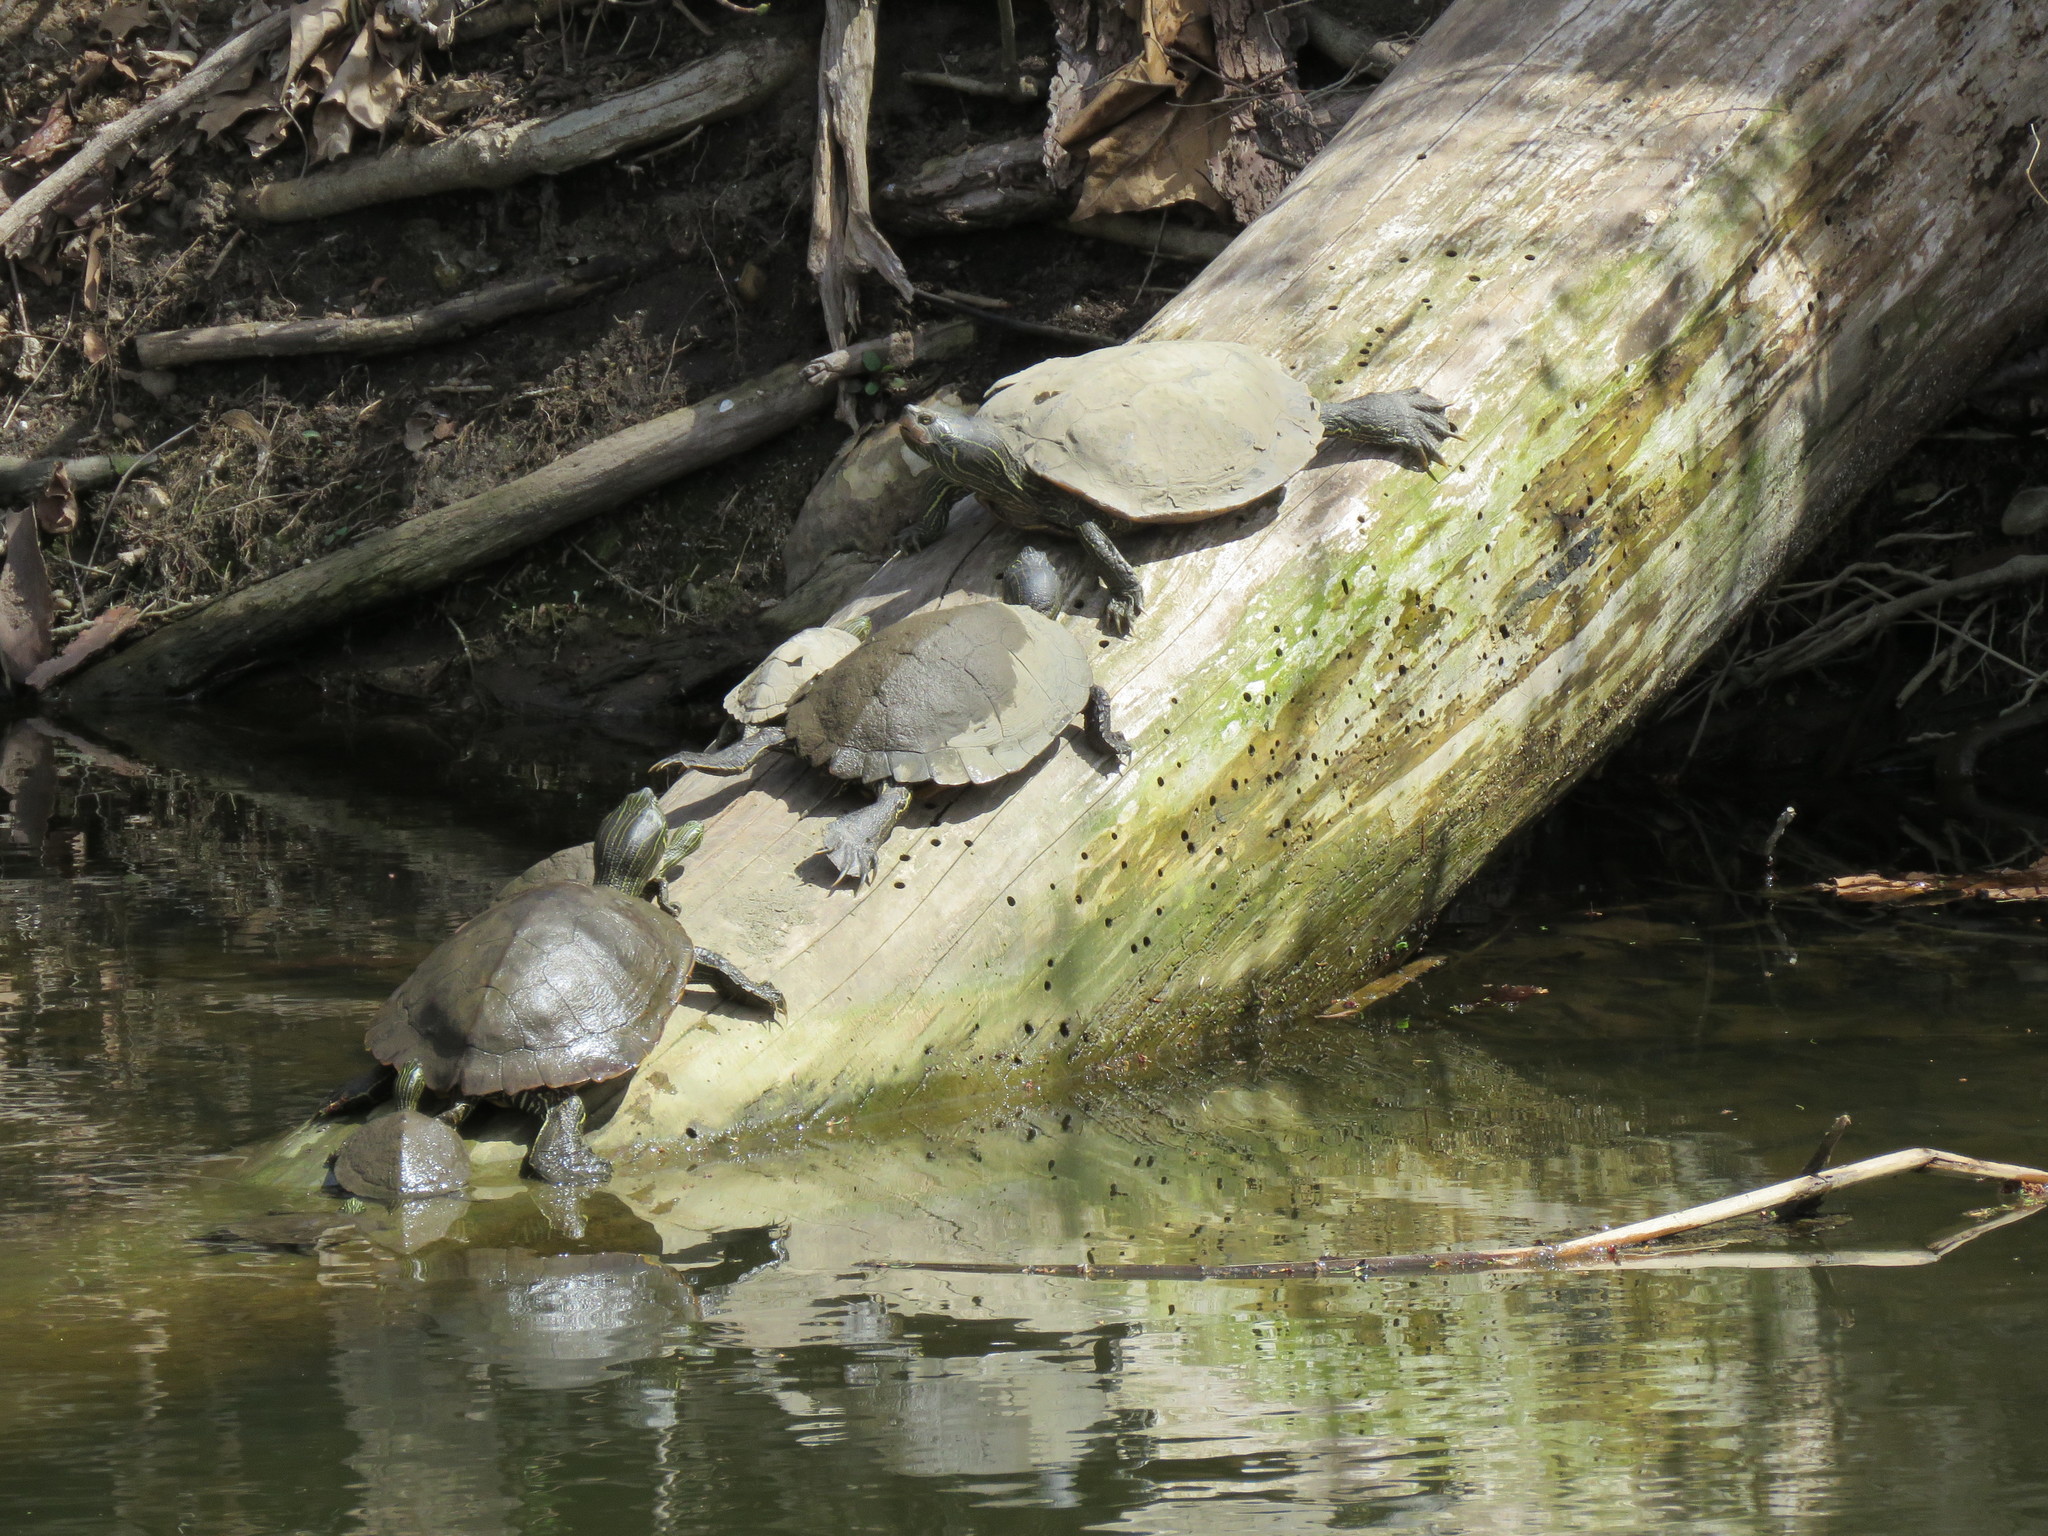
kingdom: Animalia
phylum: Chordata
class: Testudines
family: Emydidae
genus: Graptemys
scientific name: Graptemys geographica
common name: Common map turtle
